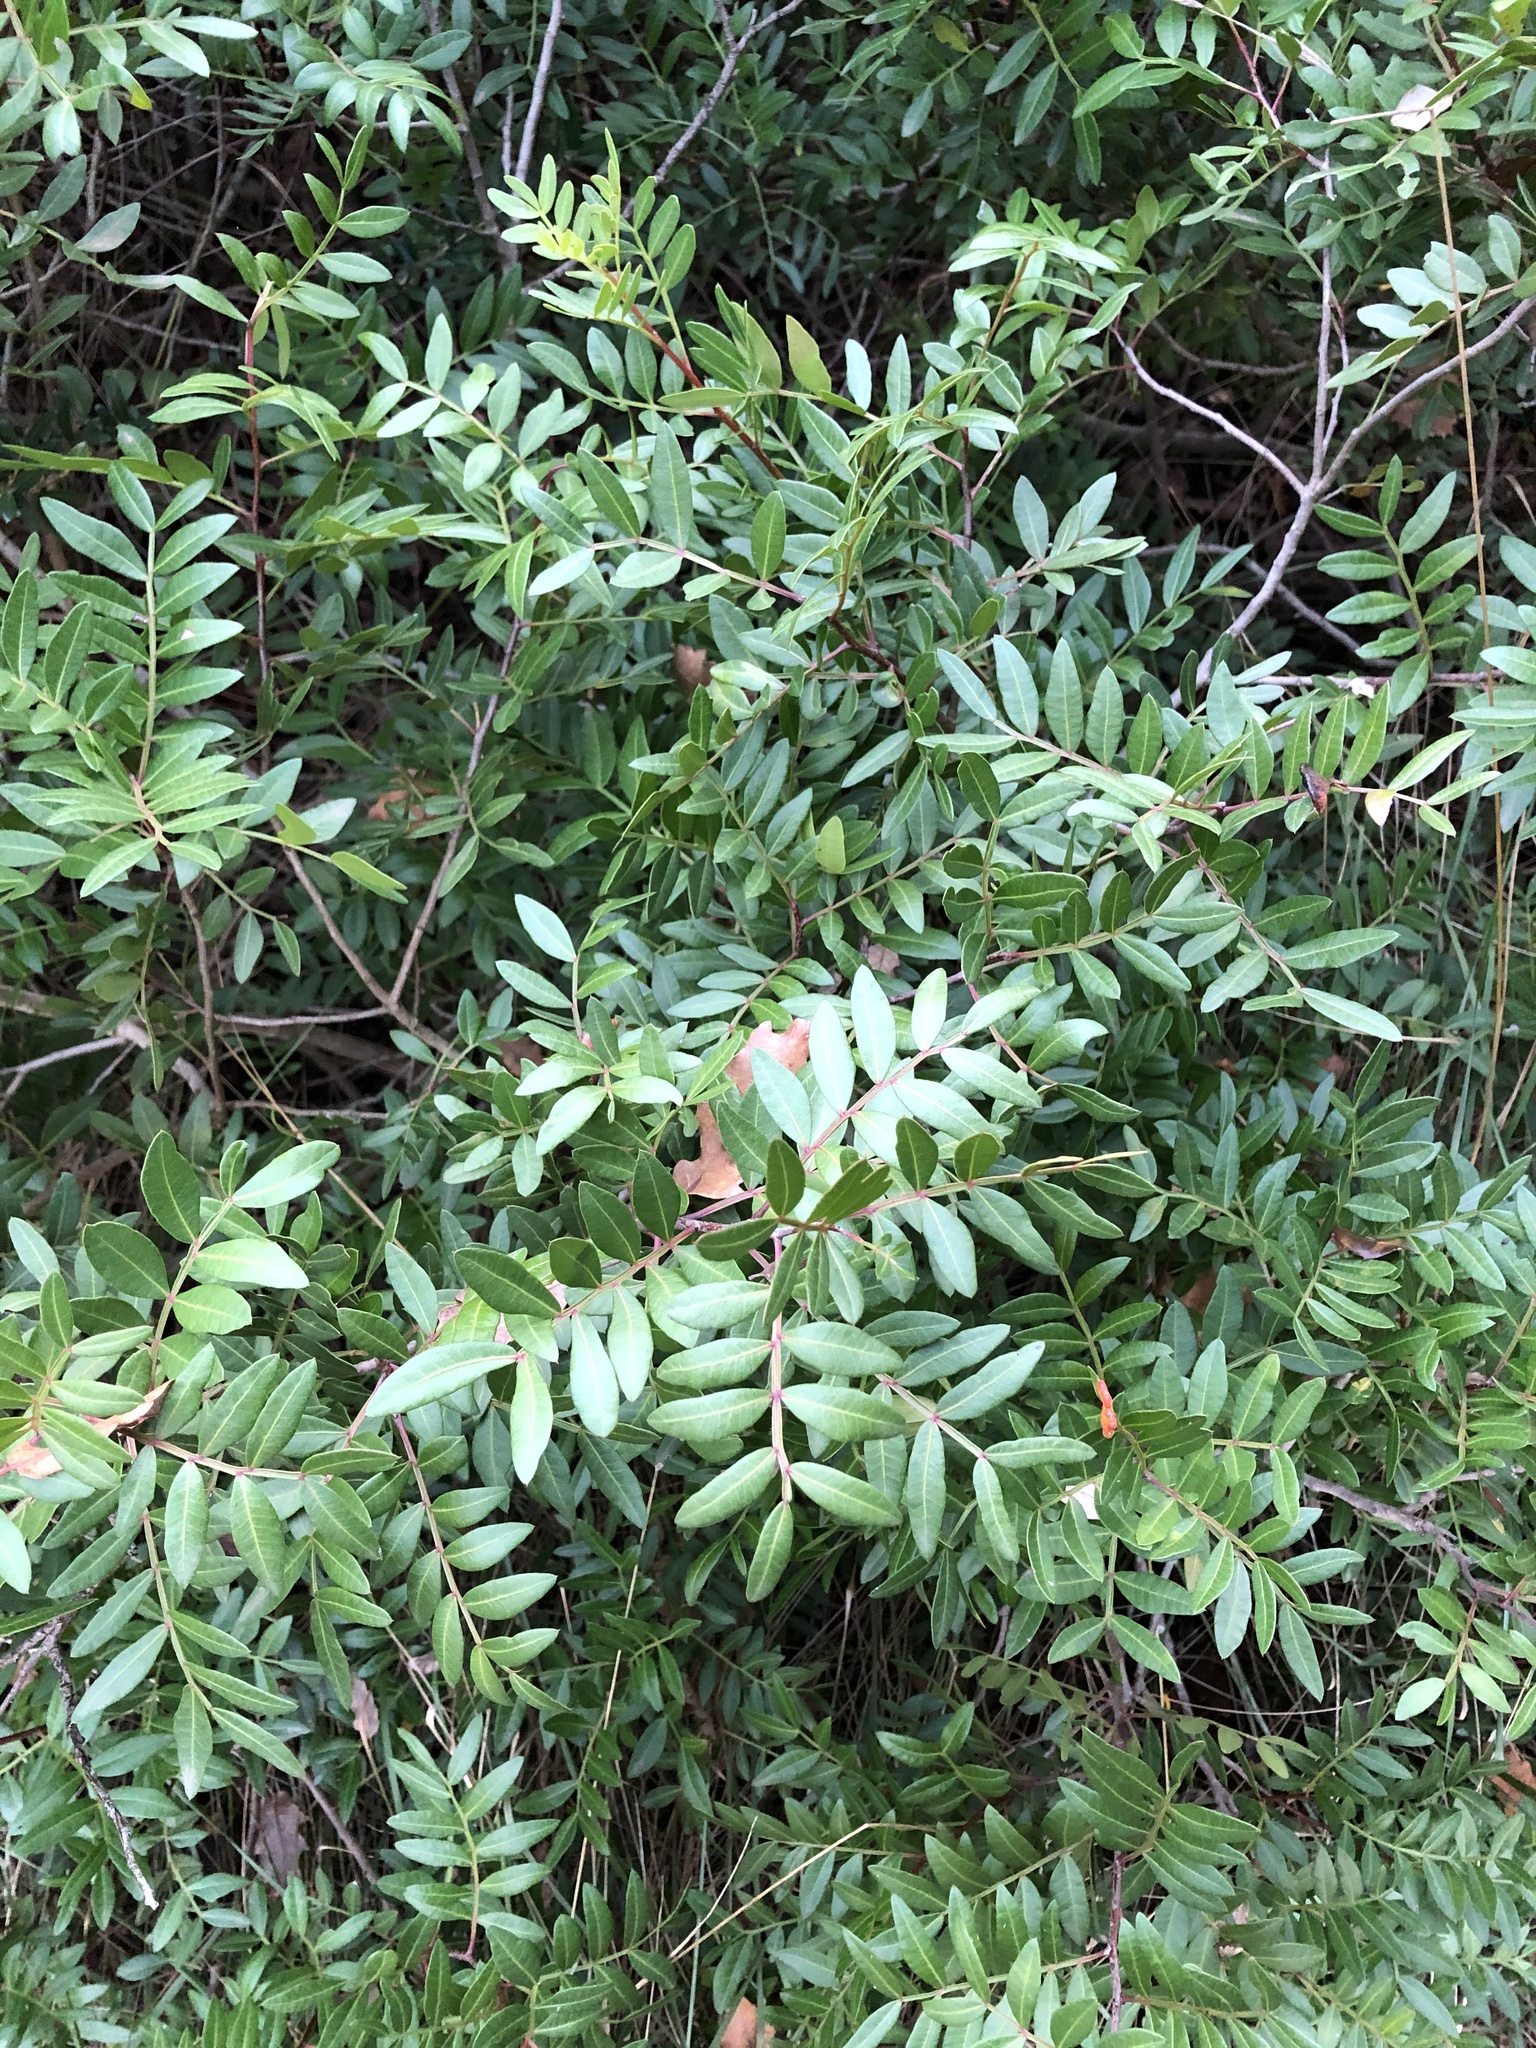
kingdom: Plantae
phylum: Tracheophyta
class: Magnoliopsida
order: Sapindales
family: Anacardiaceae
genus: Pistacia
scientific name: Pistacia lentiscus
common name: Lentisk
